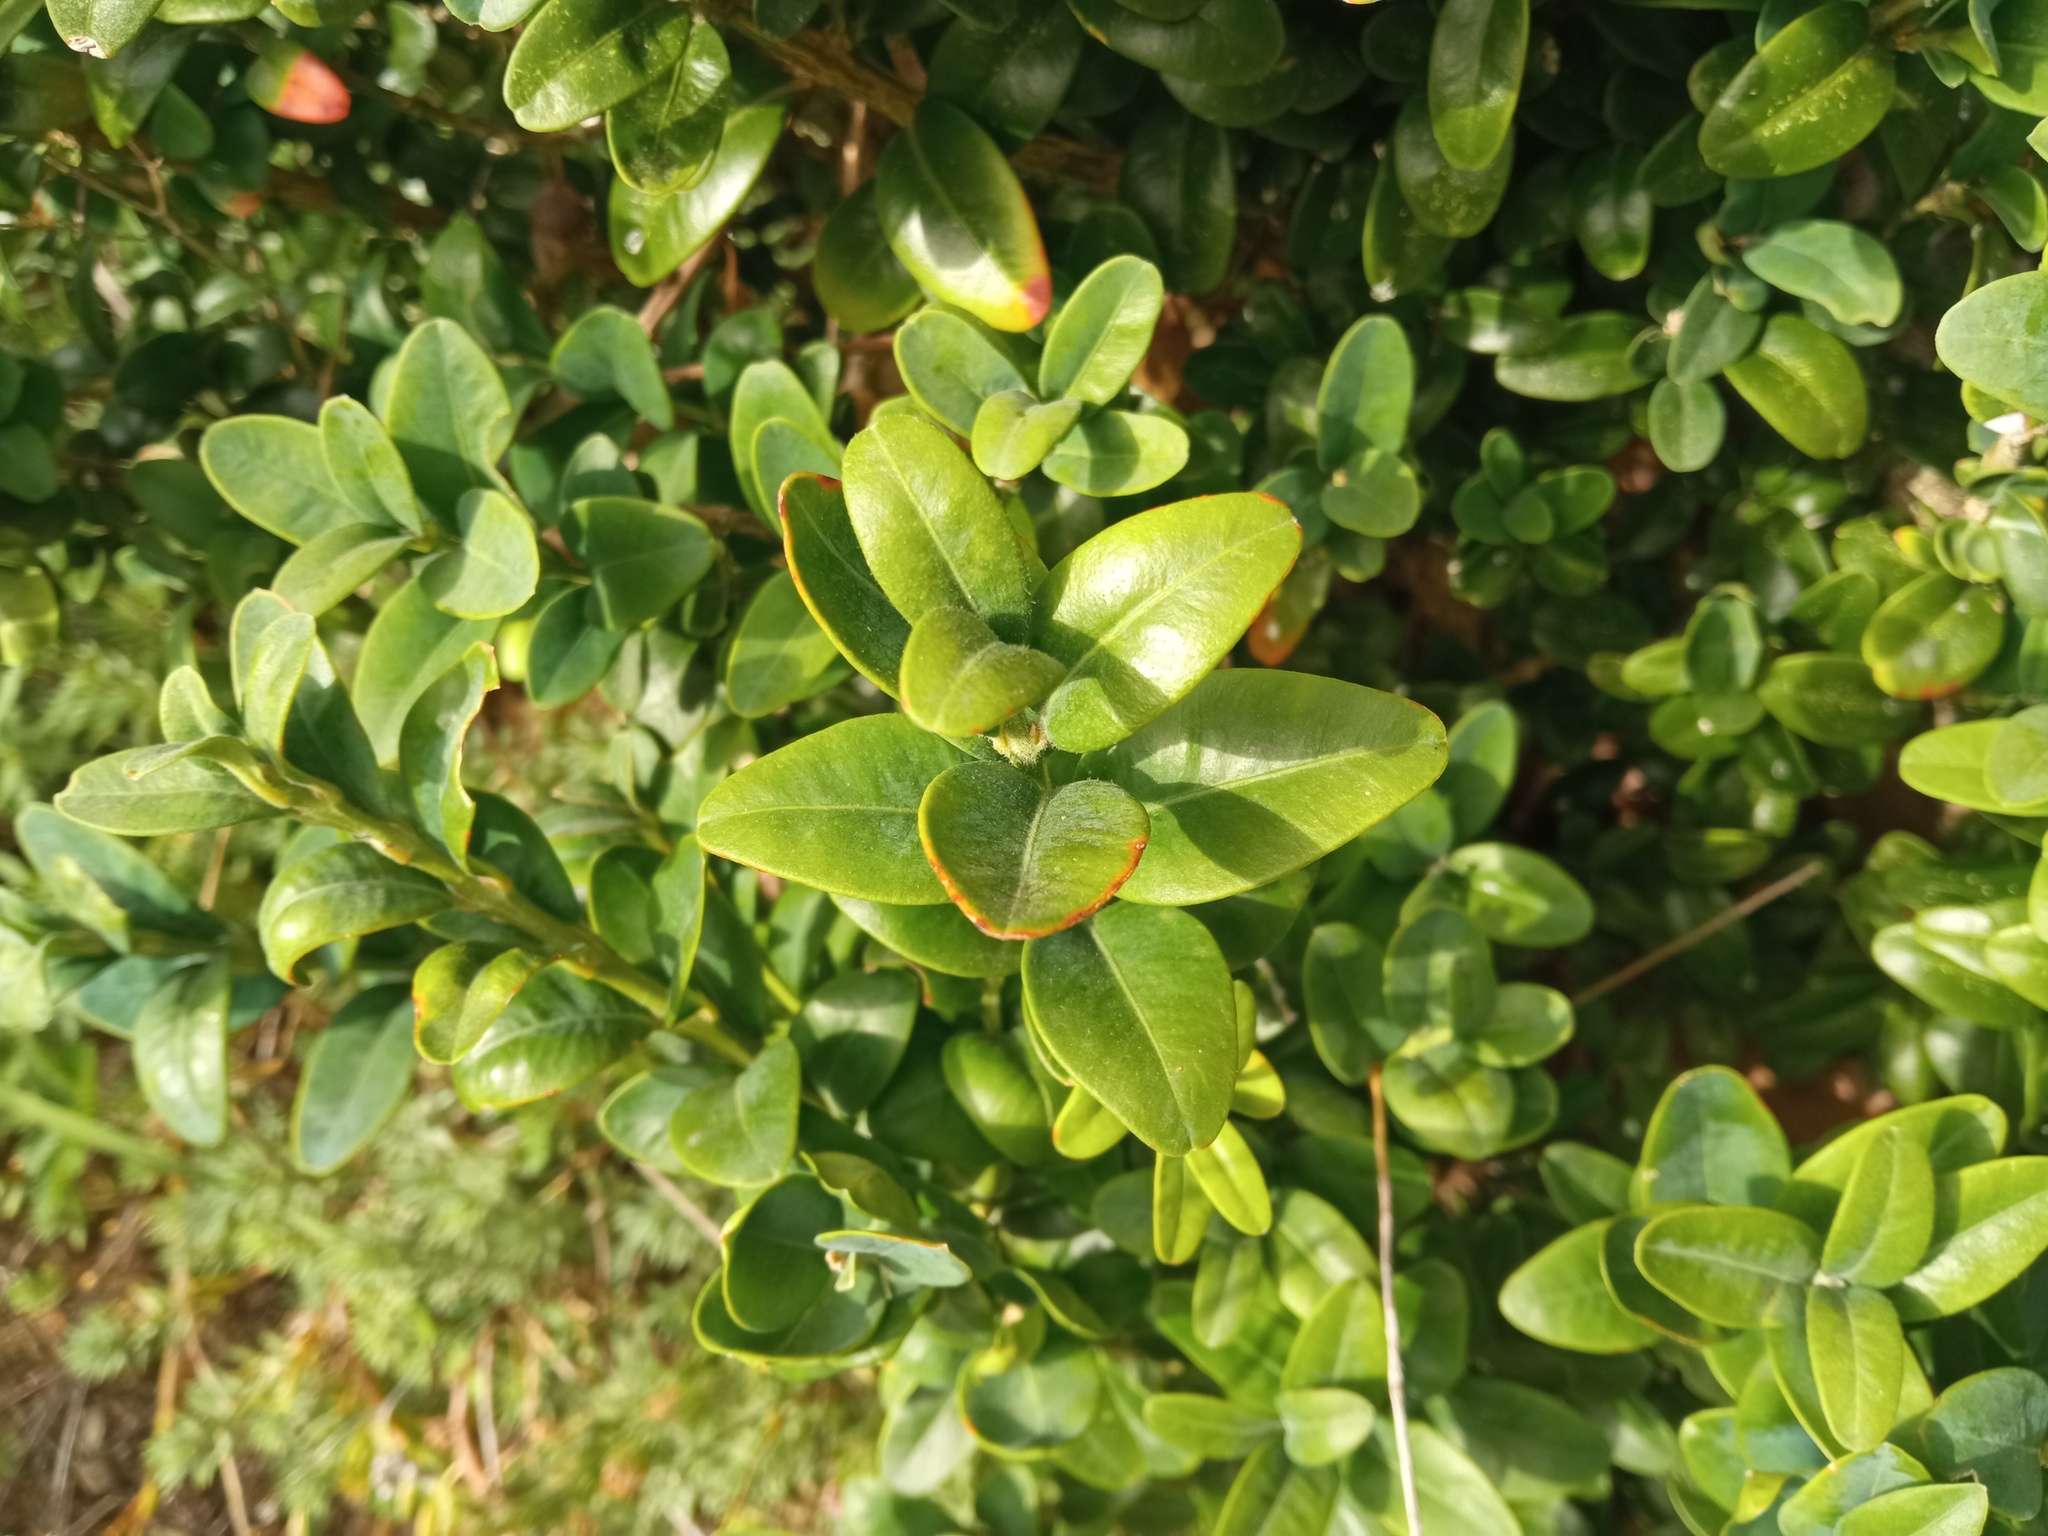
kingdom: Plantae
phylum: Tracheophyta
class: Magnoliopsida
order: Buxales
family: Buxaceae
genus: Buxus
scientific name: Buxus sempervirens
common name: Box
